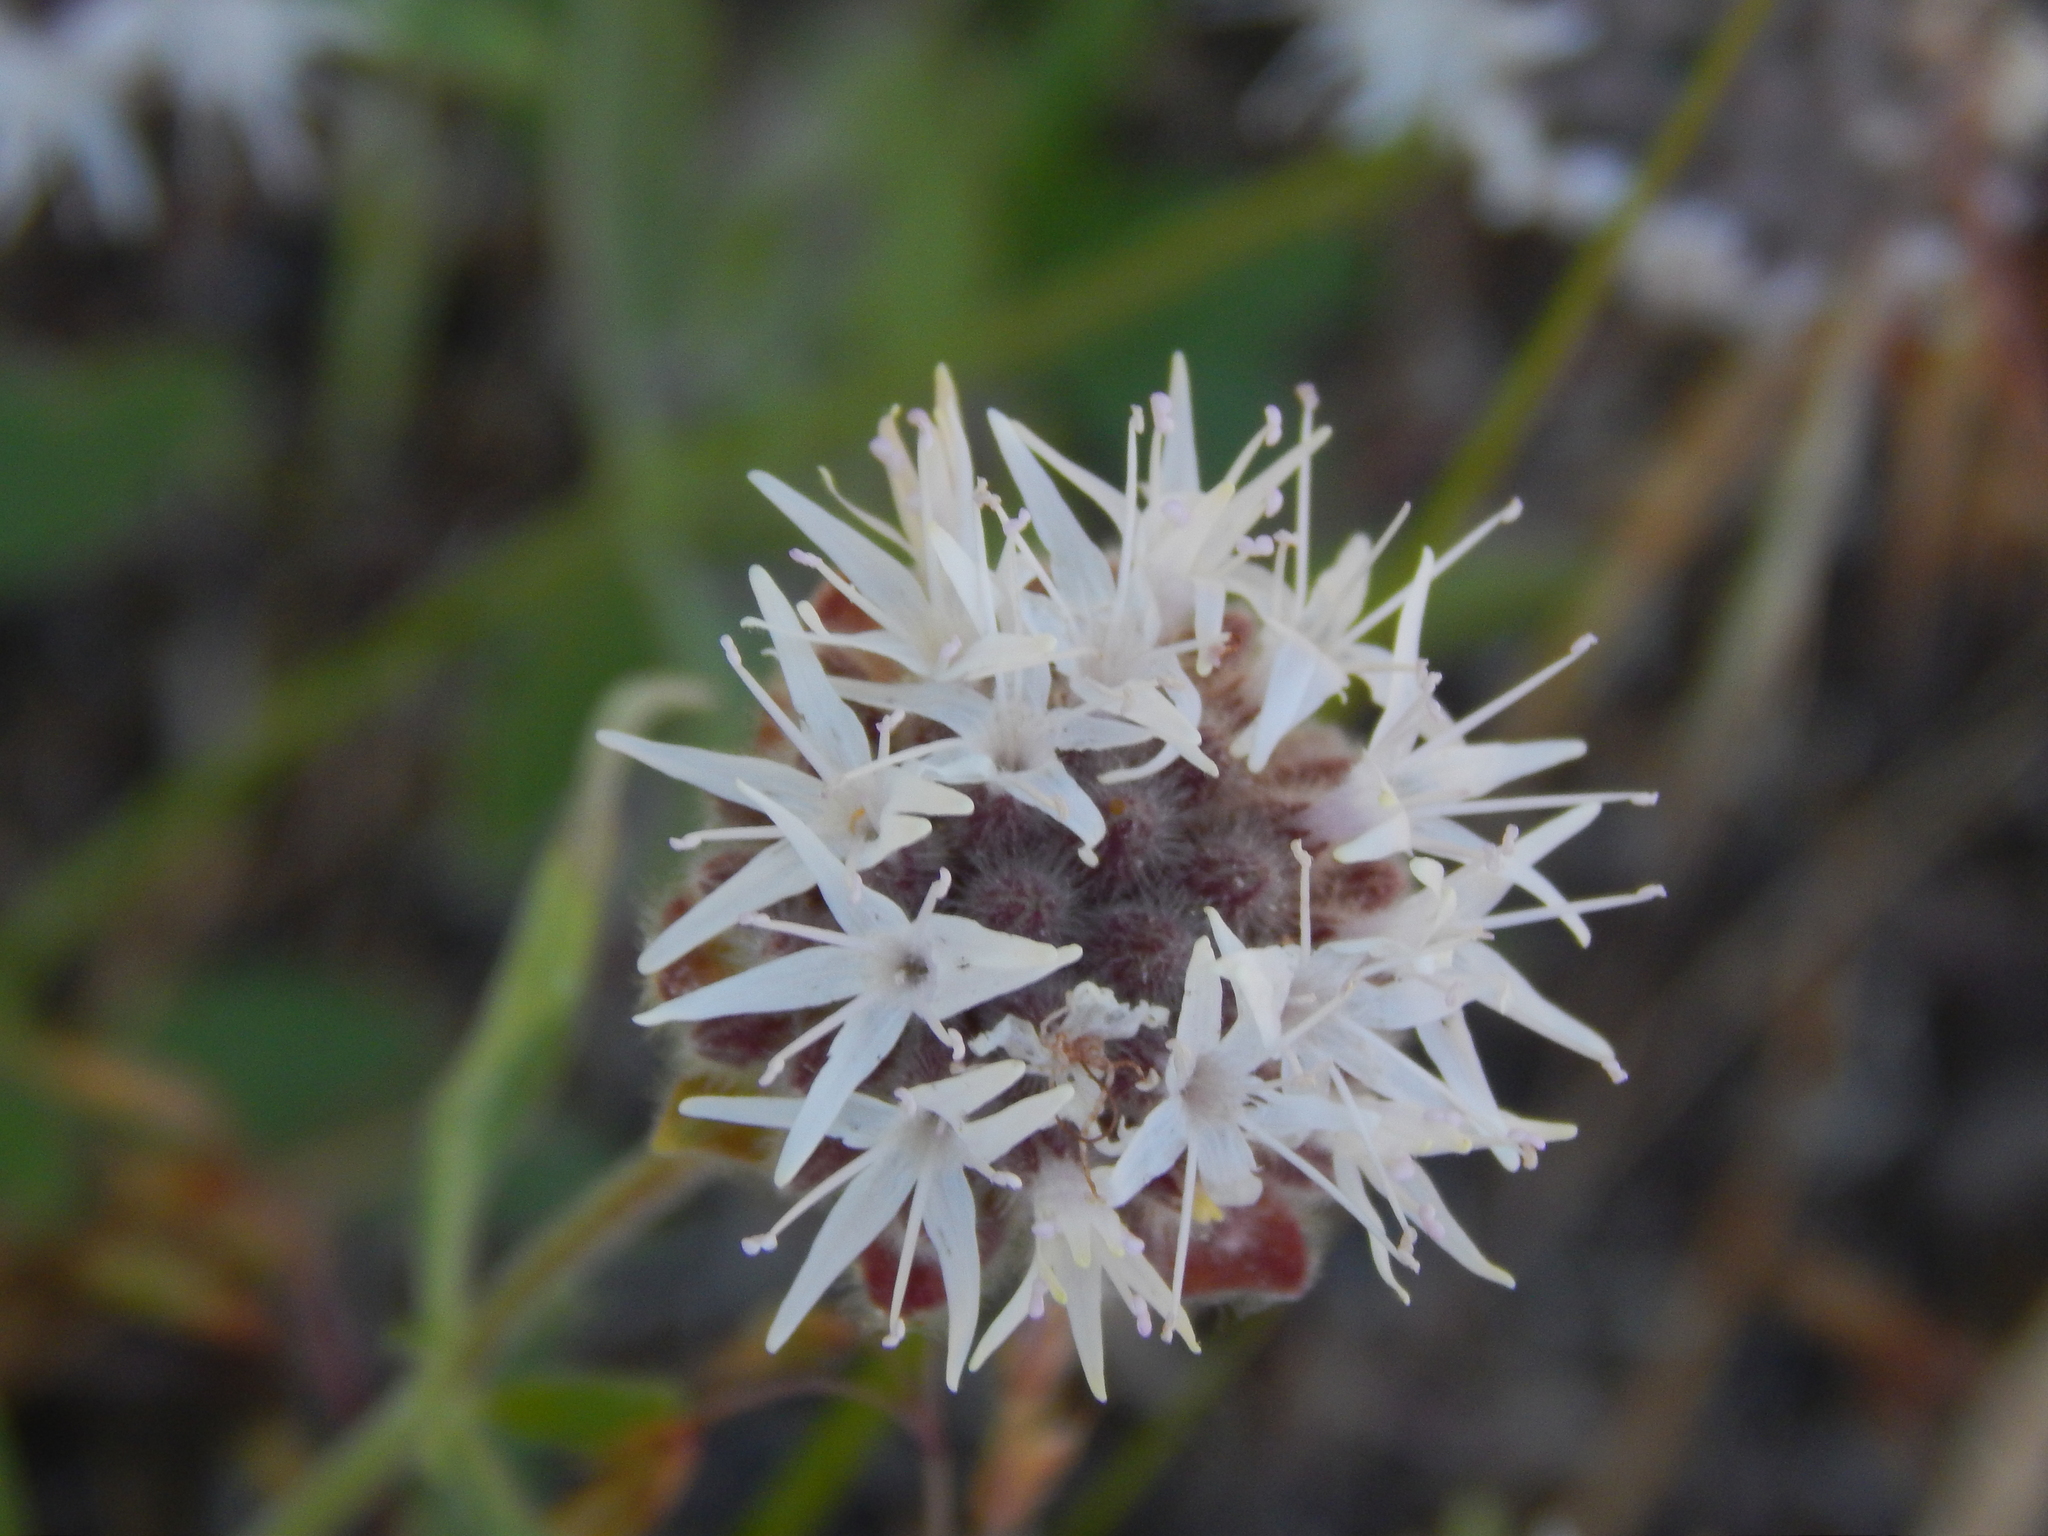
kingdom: Plantae
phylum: Tracheophyta
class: Magnoliopsida
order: Lamiales
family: Lamiaceae
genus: Monardella
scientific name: Monardella odoratissima
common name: Pacific monardella
